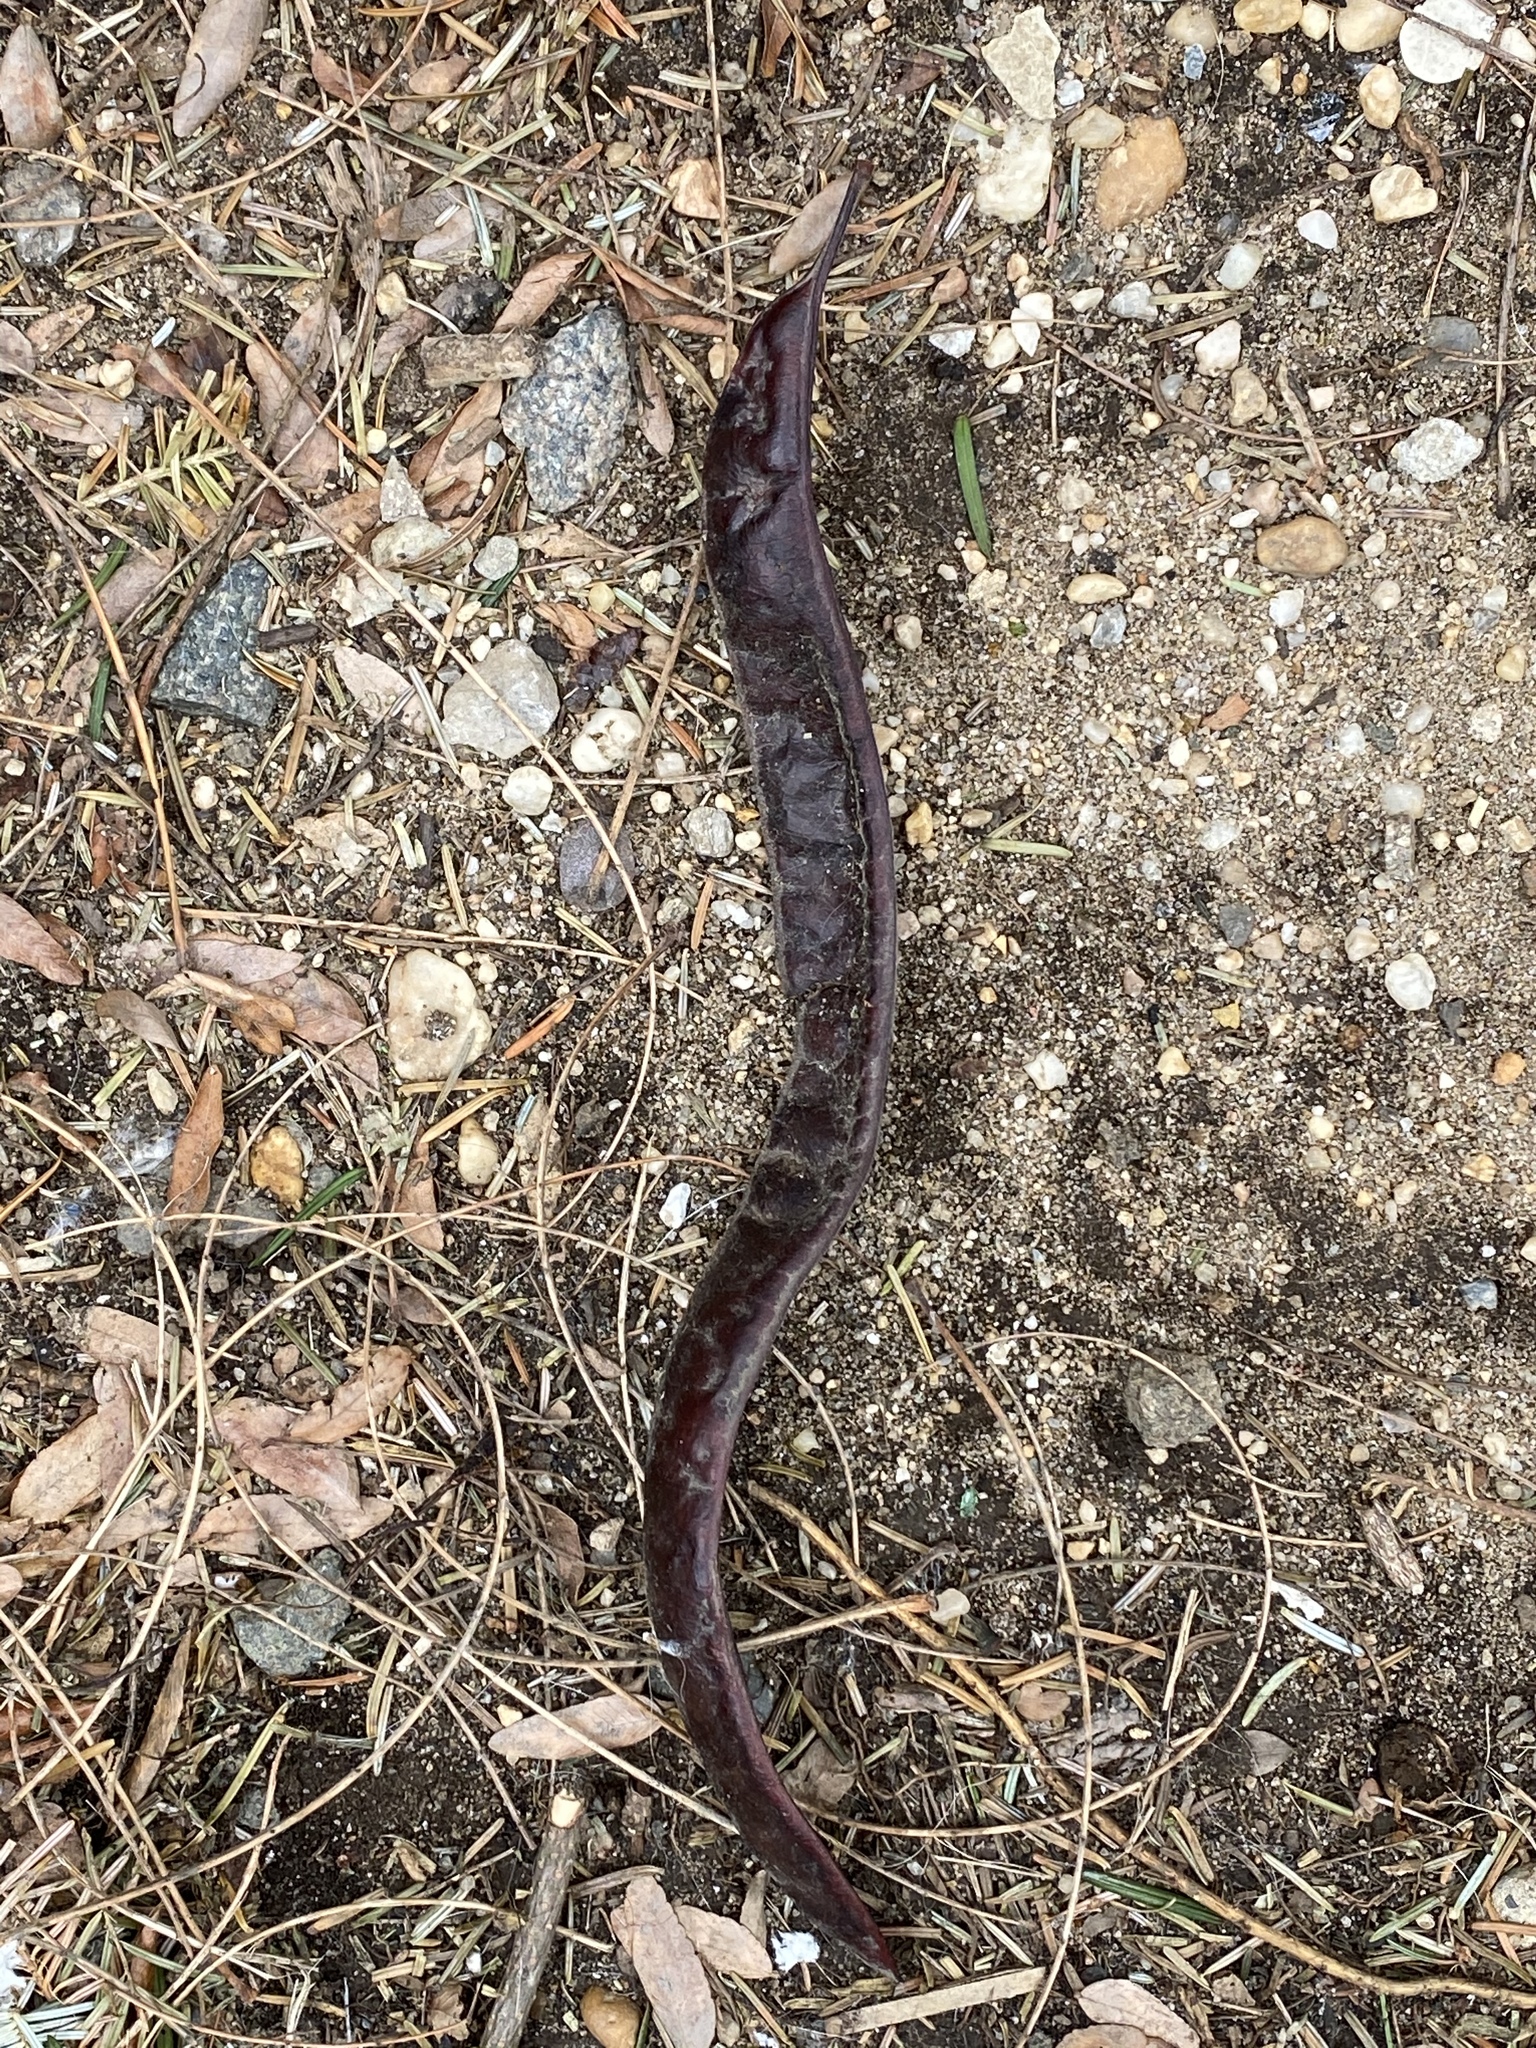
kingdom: Plantae
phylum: Tracheophyta
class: Magnoliopsida
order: Fabales
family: Fabaceae
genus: Gleditsia
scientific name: Gleditsia triacanthos
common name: Common honeylocust
